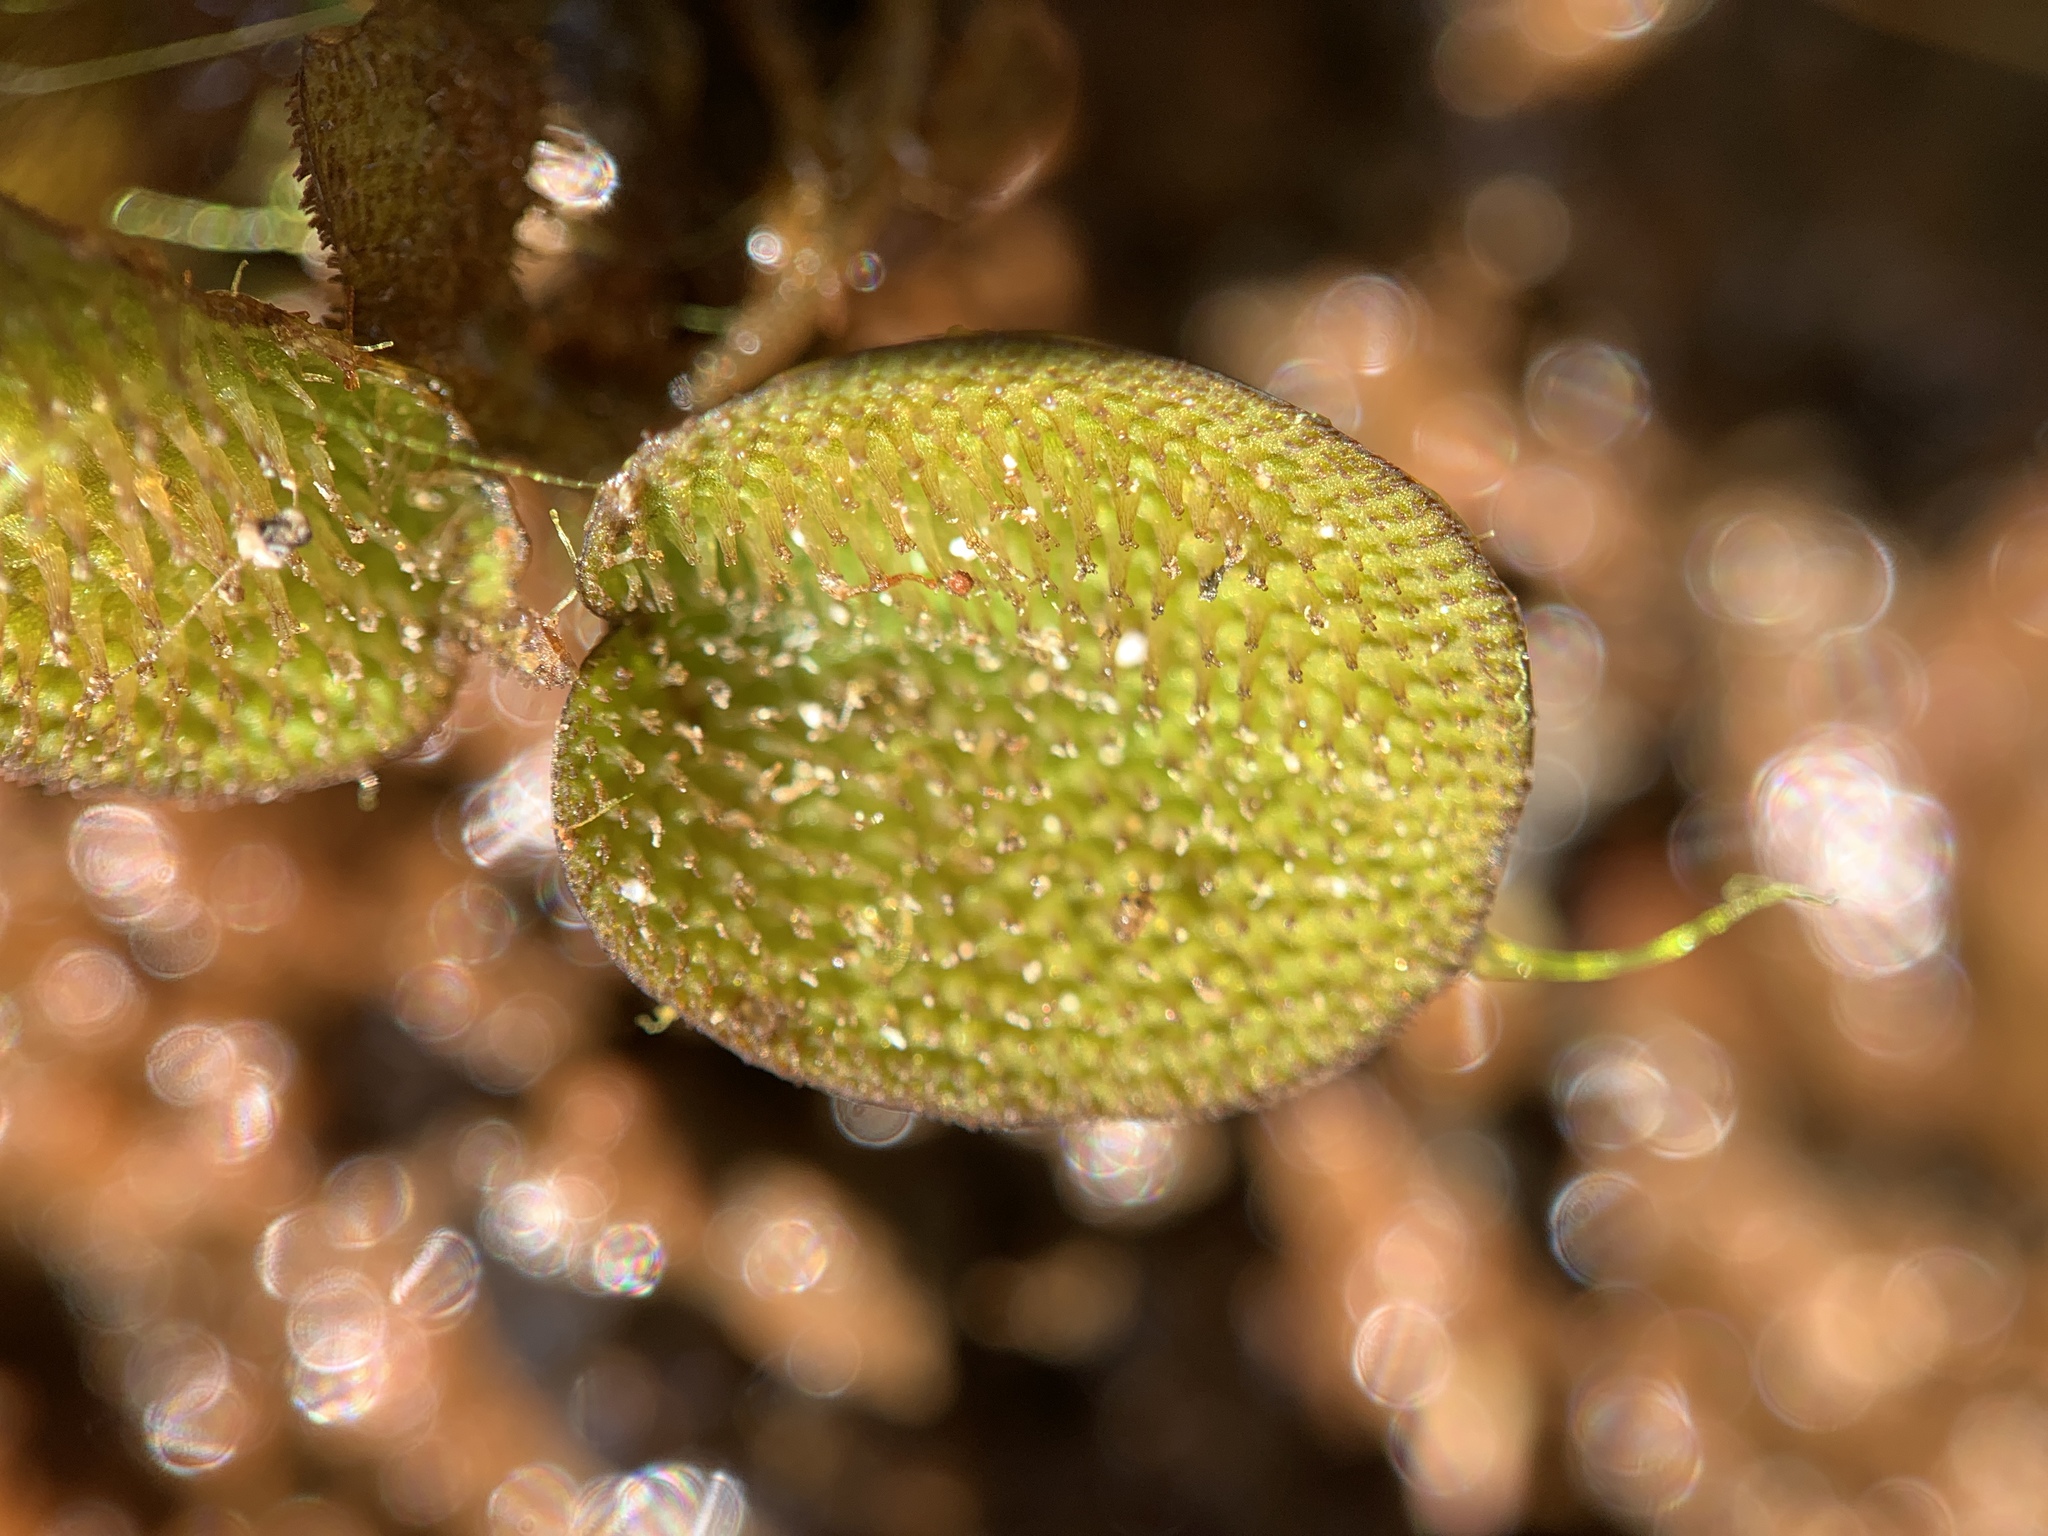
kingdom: Plantae
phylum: Tracheophyta
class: Polypodiopsida
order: Salviniales
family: Salviniaceae
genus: Salvinia
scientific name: Salvinia minima
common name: Water spangles
